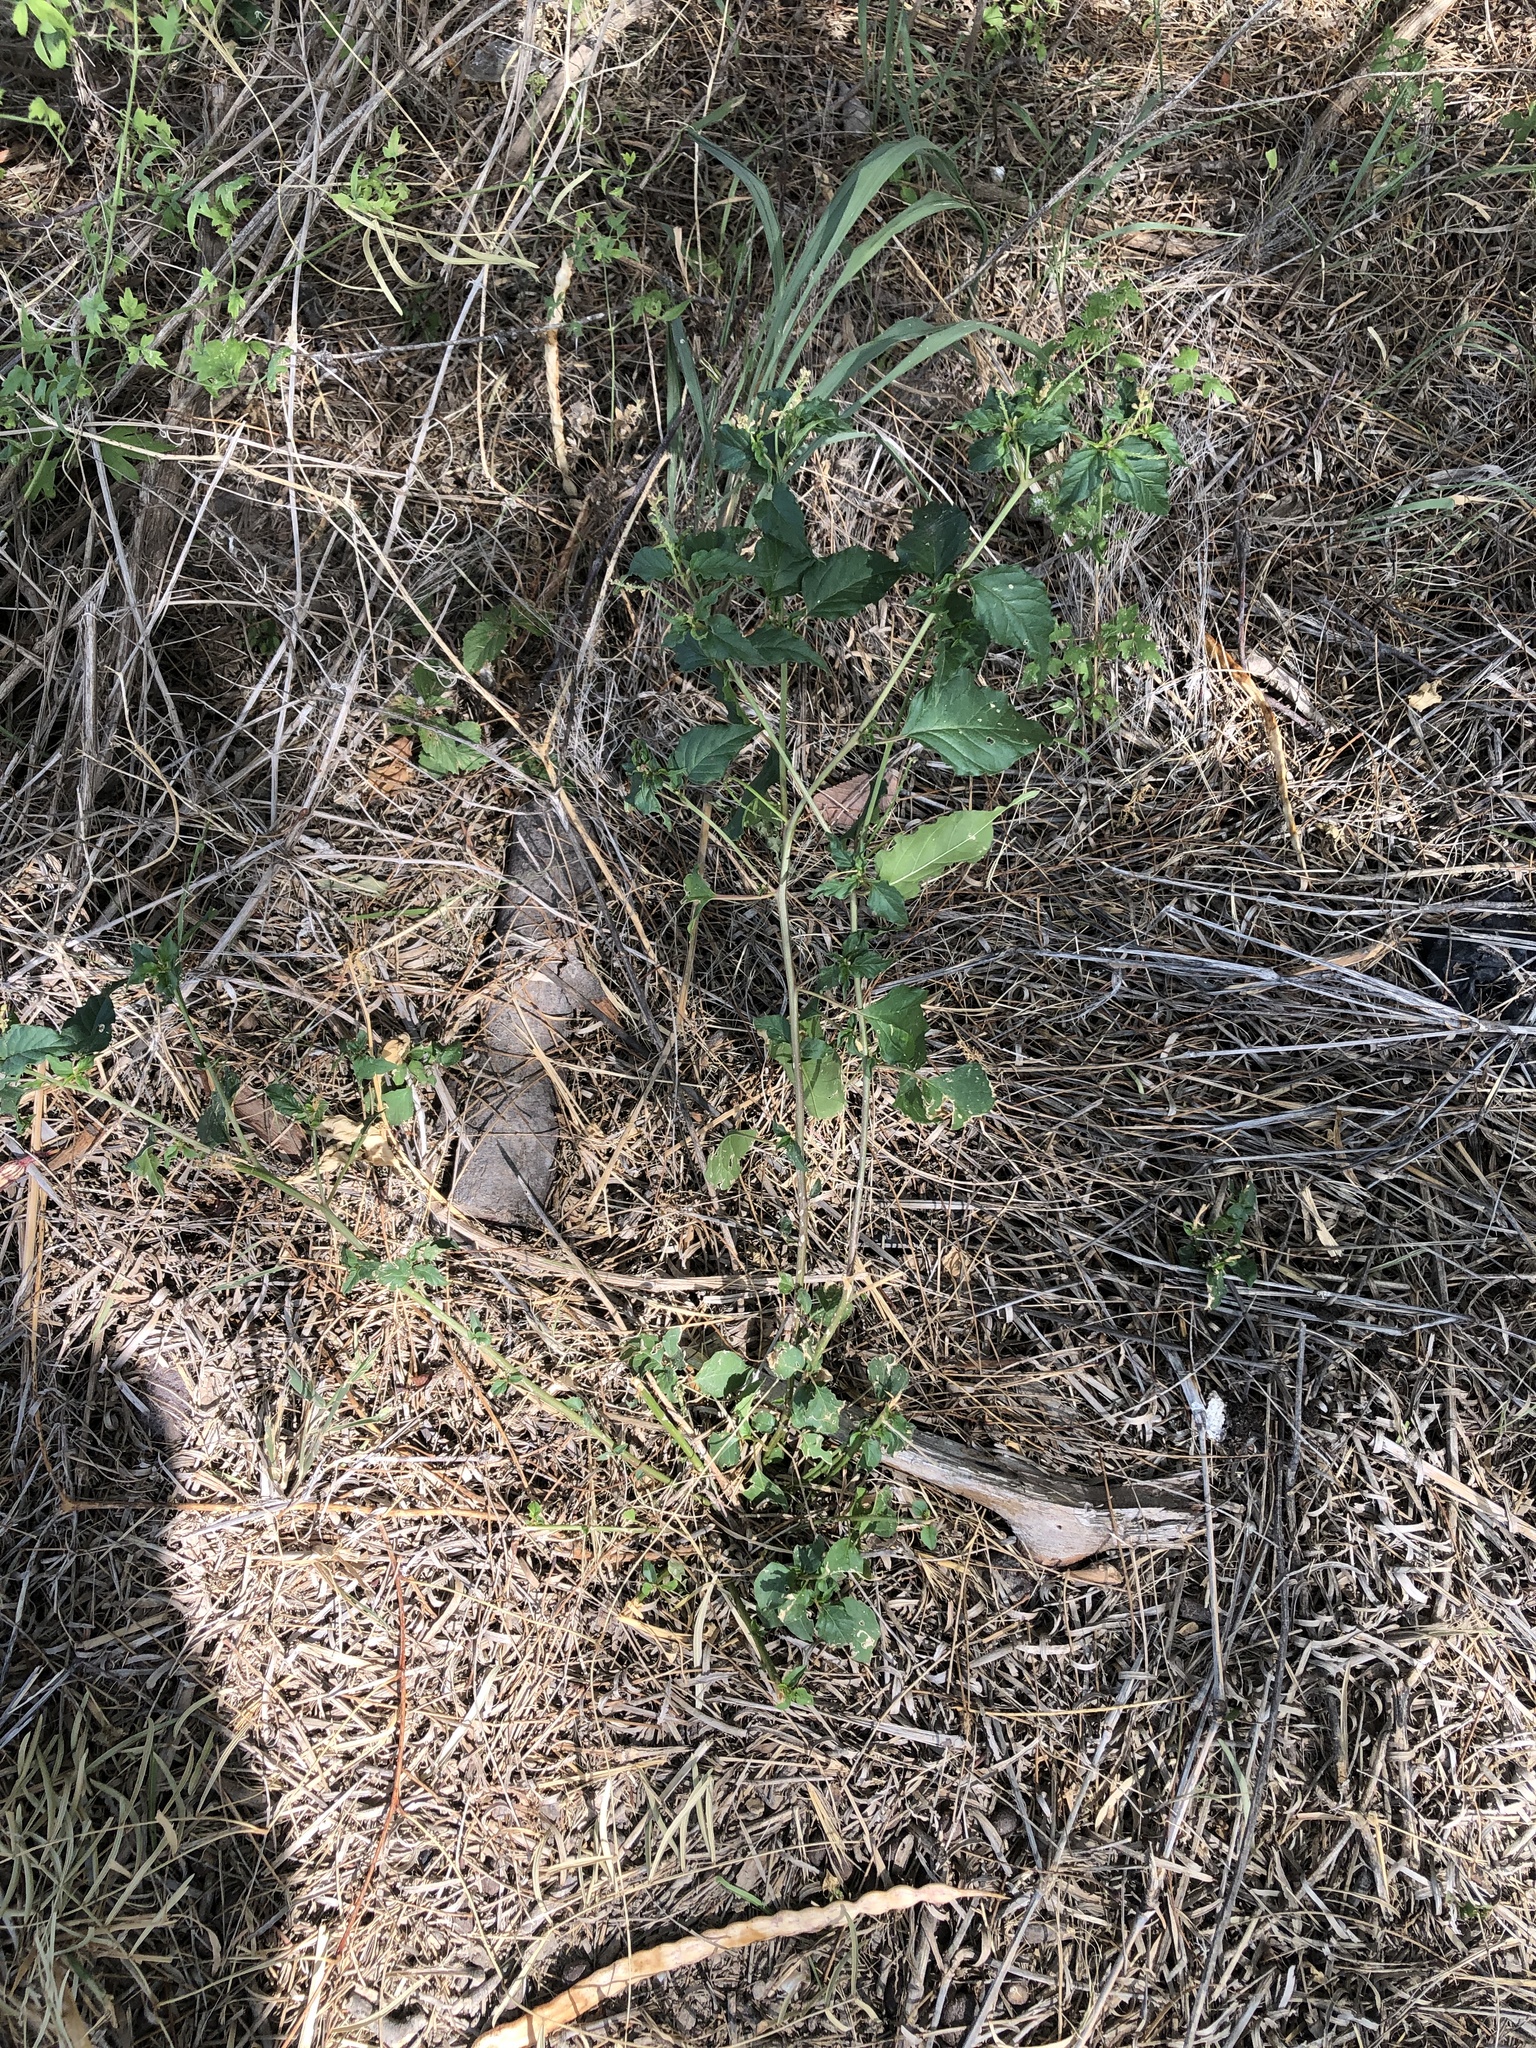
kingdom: Plantae
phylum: Tracheophyta
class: Magnoliopsida
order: Caryophyllales
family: Phytolaccaceae
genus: Rivina
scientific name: Rivina humilis
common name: Rougeplant
